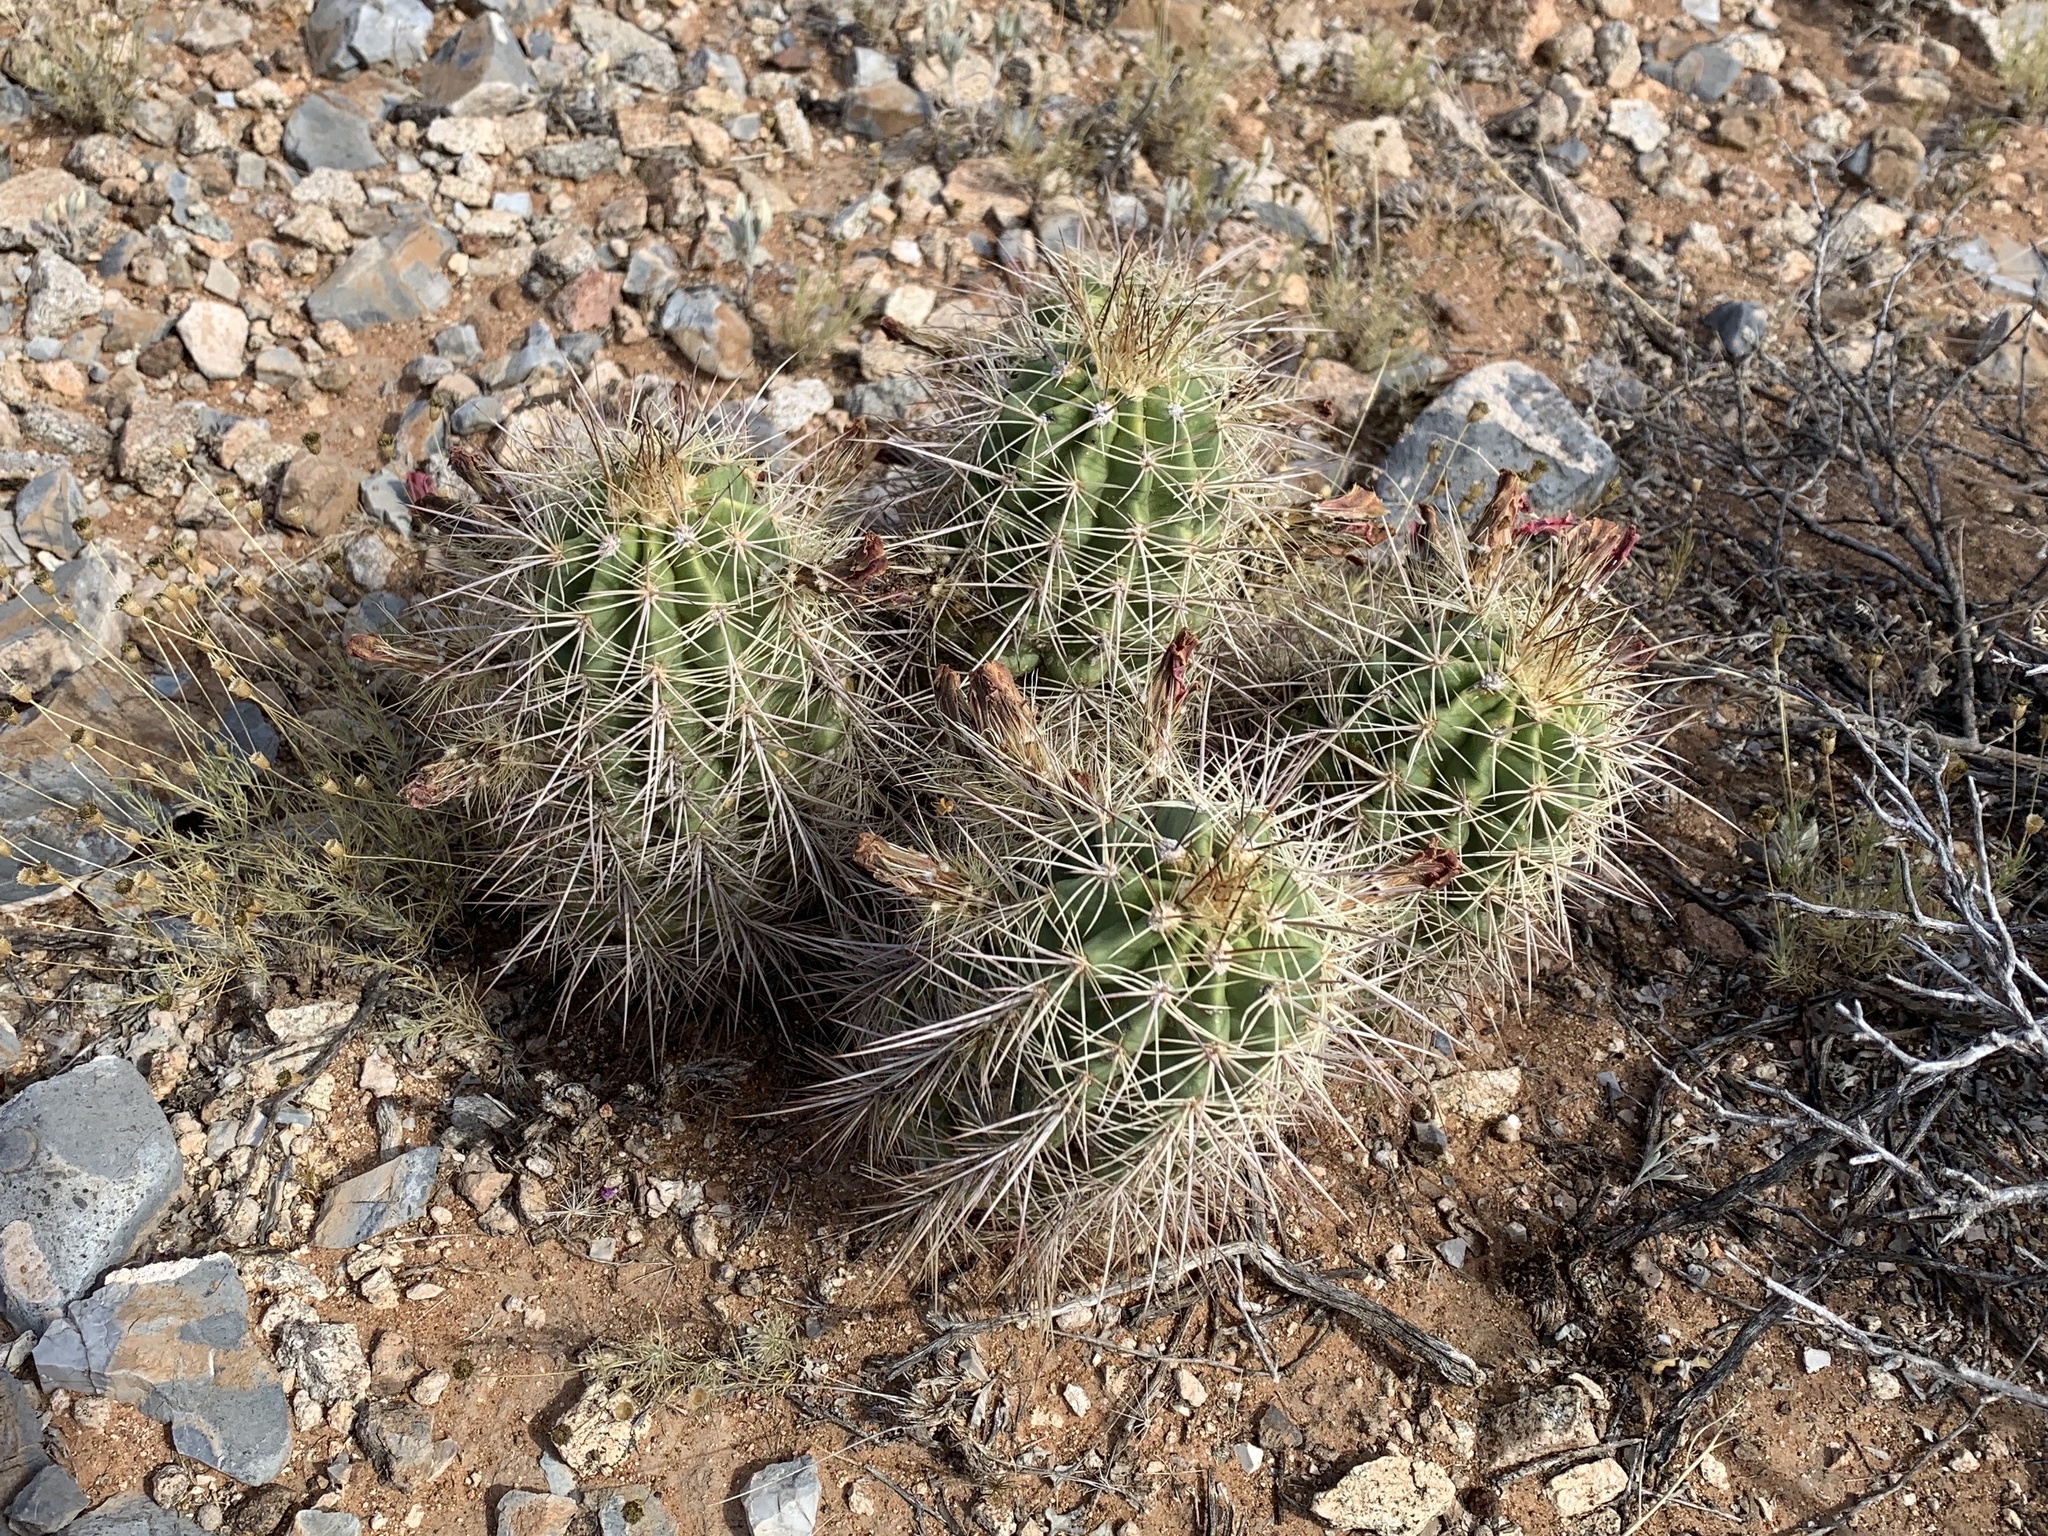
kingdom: Plantae
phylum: Tracheophyta
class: Magnoliopsida
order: Caryophyllales
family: Cactaceae
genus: Echinocereus
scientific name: Echinocereus coccineus
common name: Scarlet hedgehog cactus
